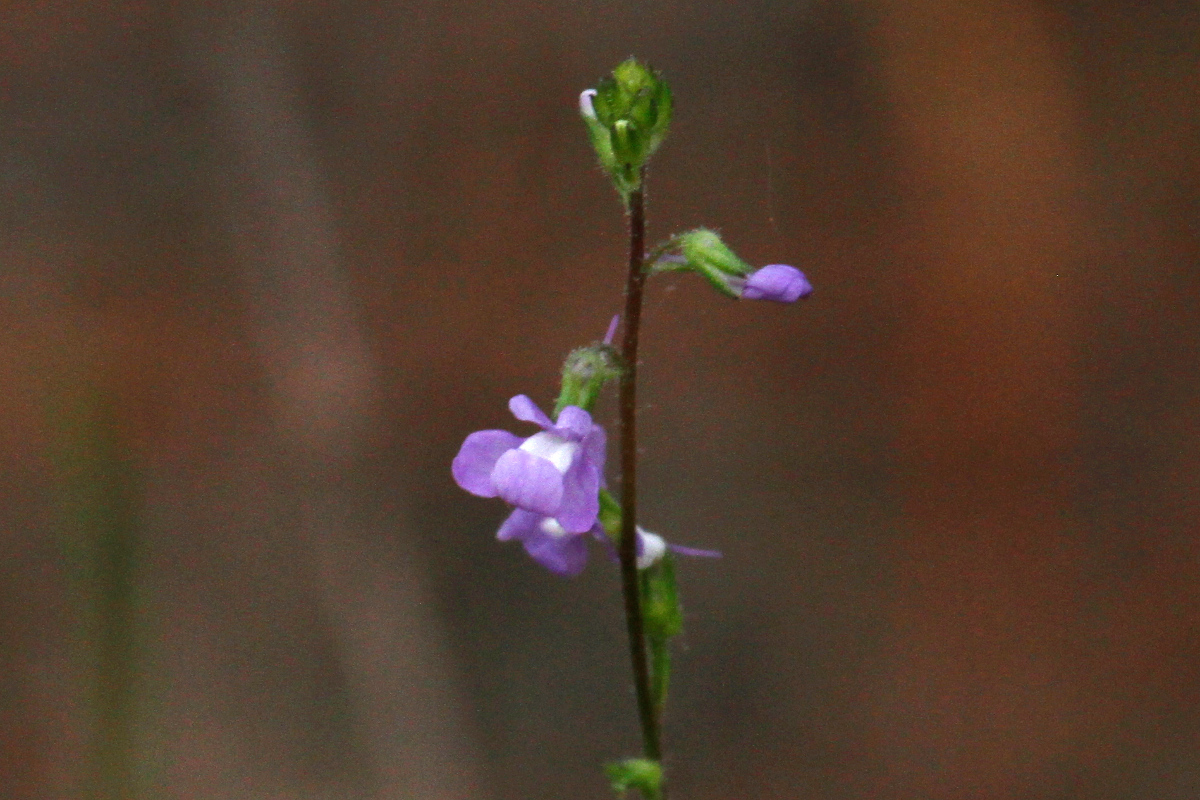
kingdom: Plantae
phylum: Tracheophyta
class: Magnoliopsida
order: Lamiales
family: Plantaginaceae
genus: Nuttallanthus
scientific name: Nuttallanthus canadensis
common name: Blue toadflax
